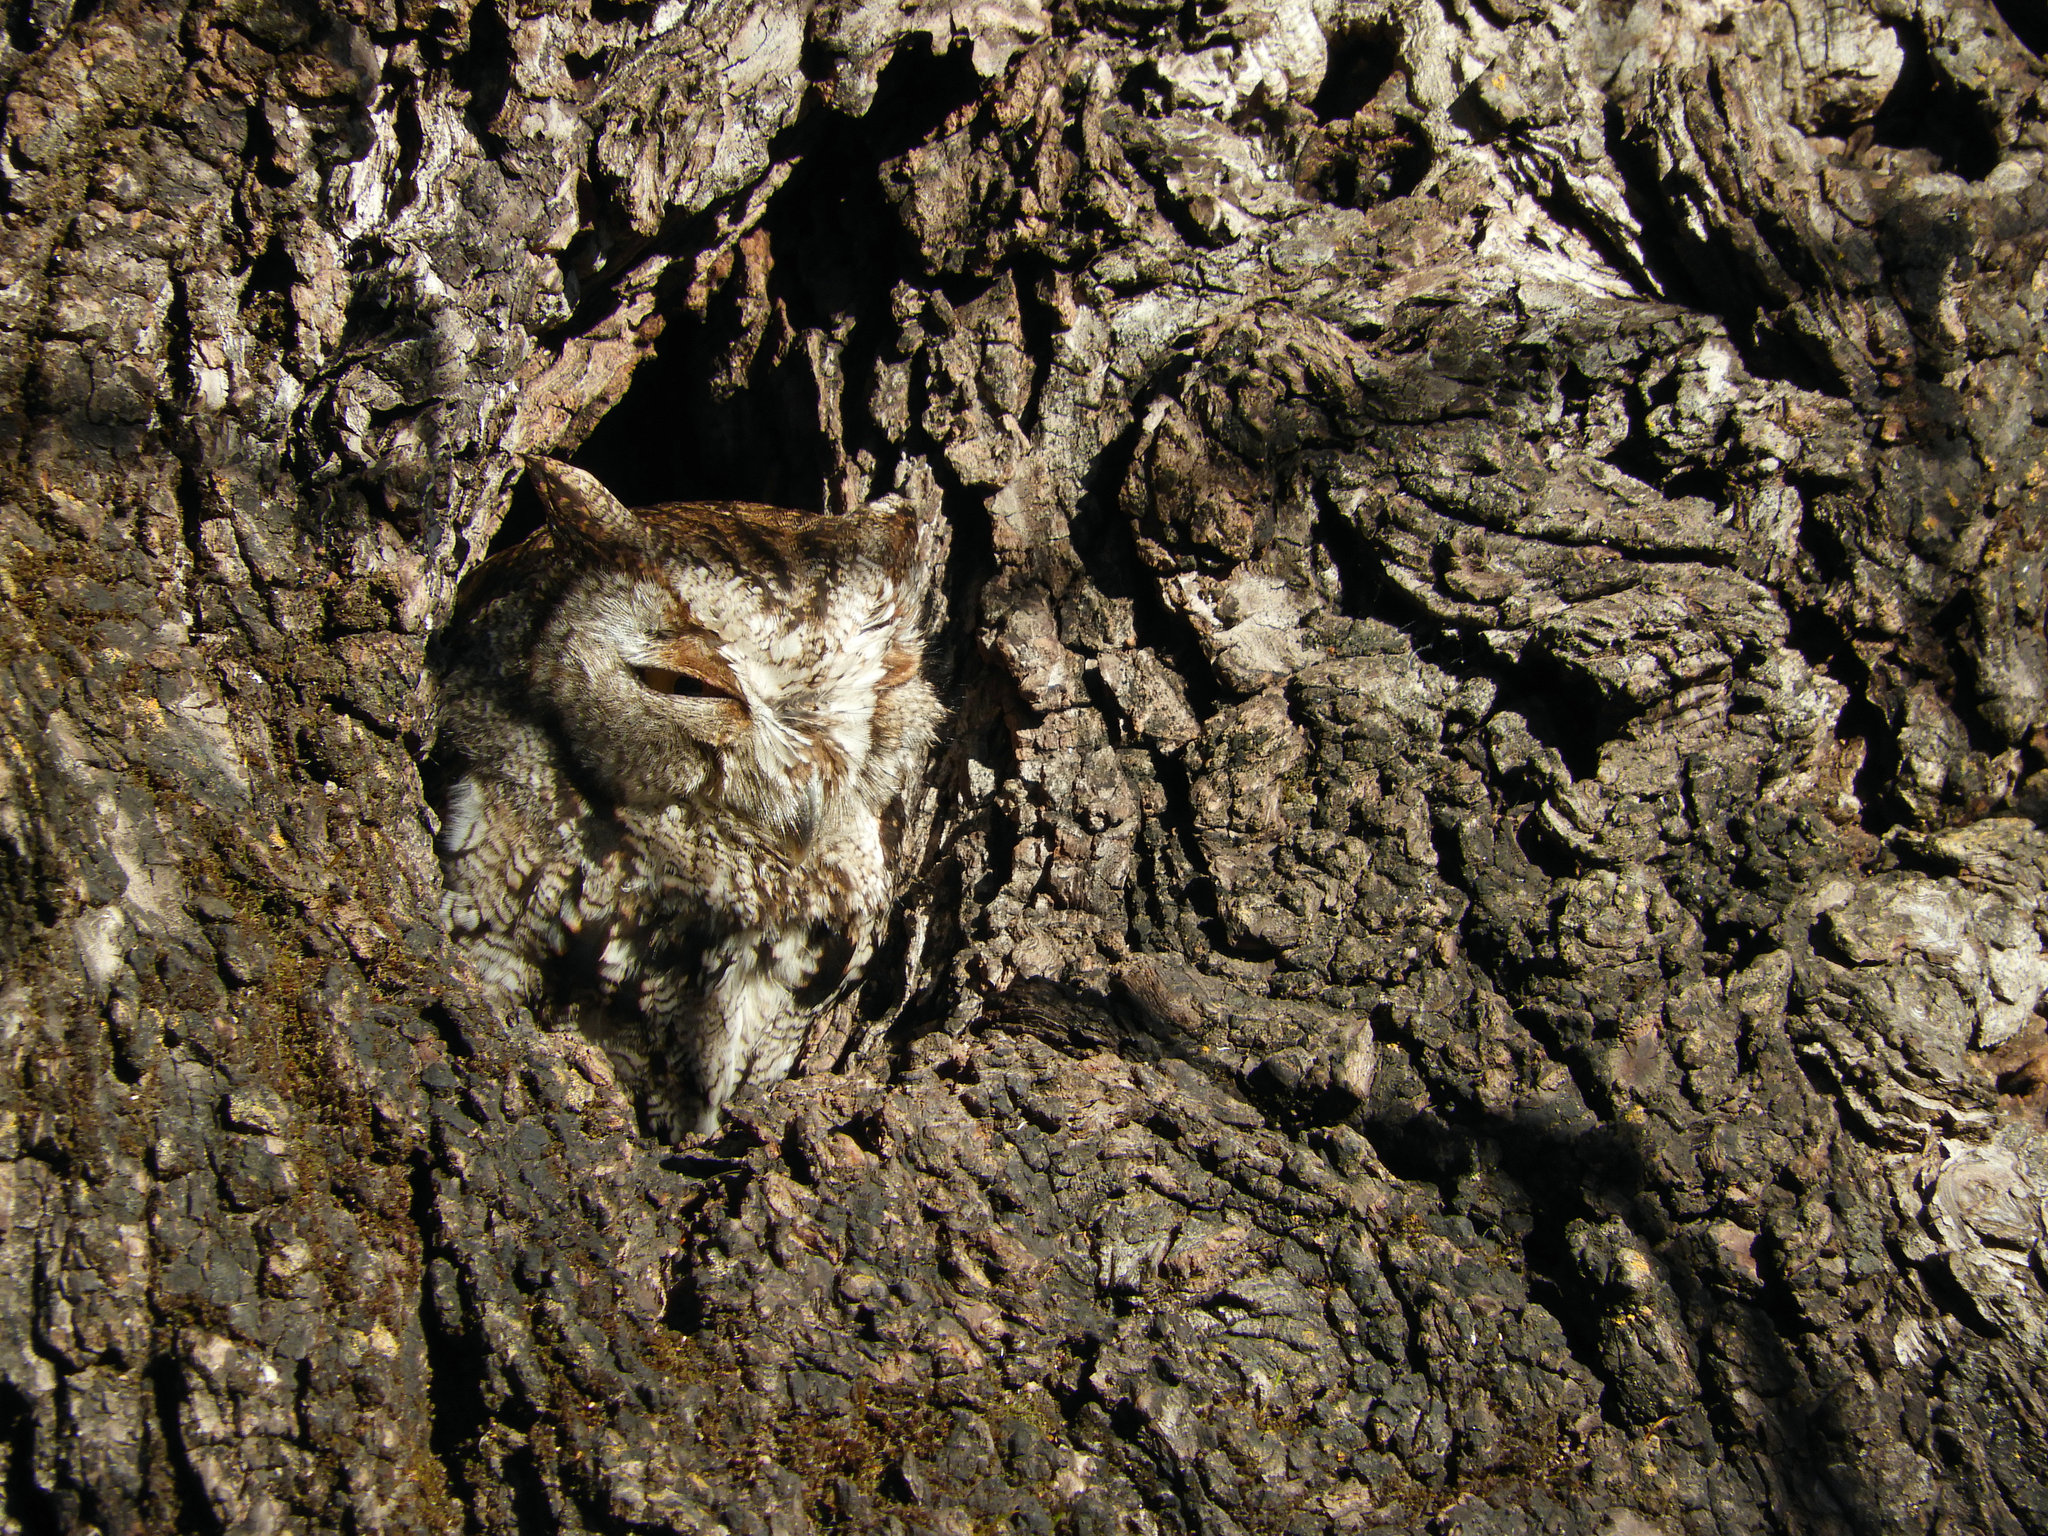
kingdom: Animalia
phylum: Chordata
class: Aves
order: Strigiformes
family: Strigidae
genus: Megascops
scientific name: Megascops kennicottii
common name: Western screech-owl
